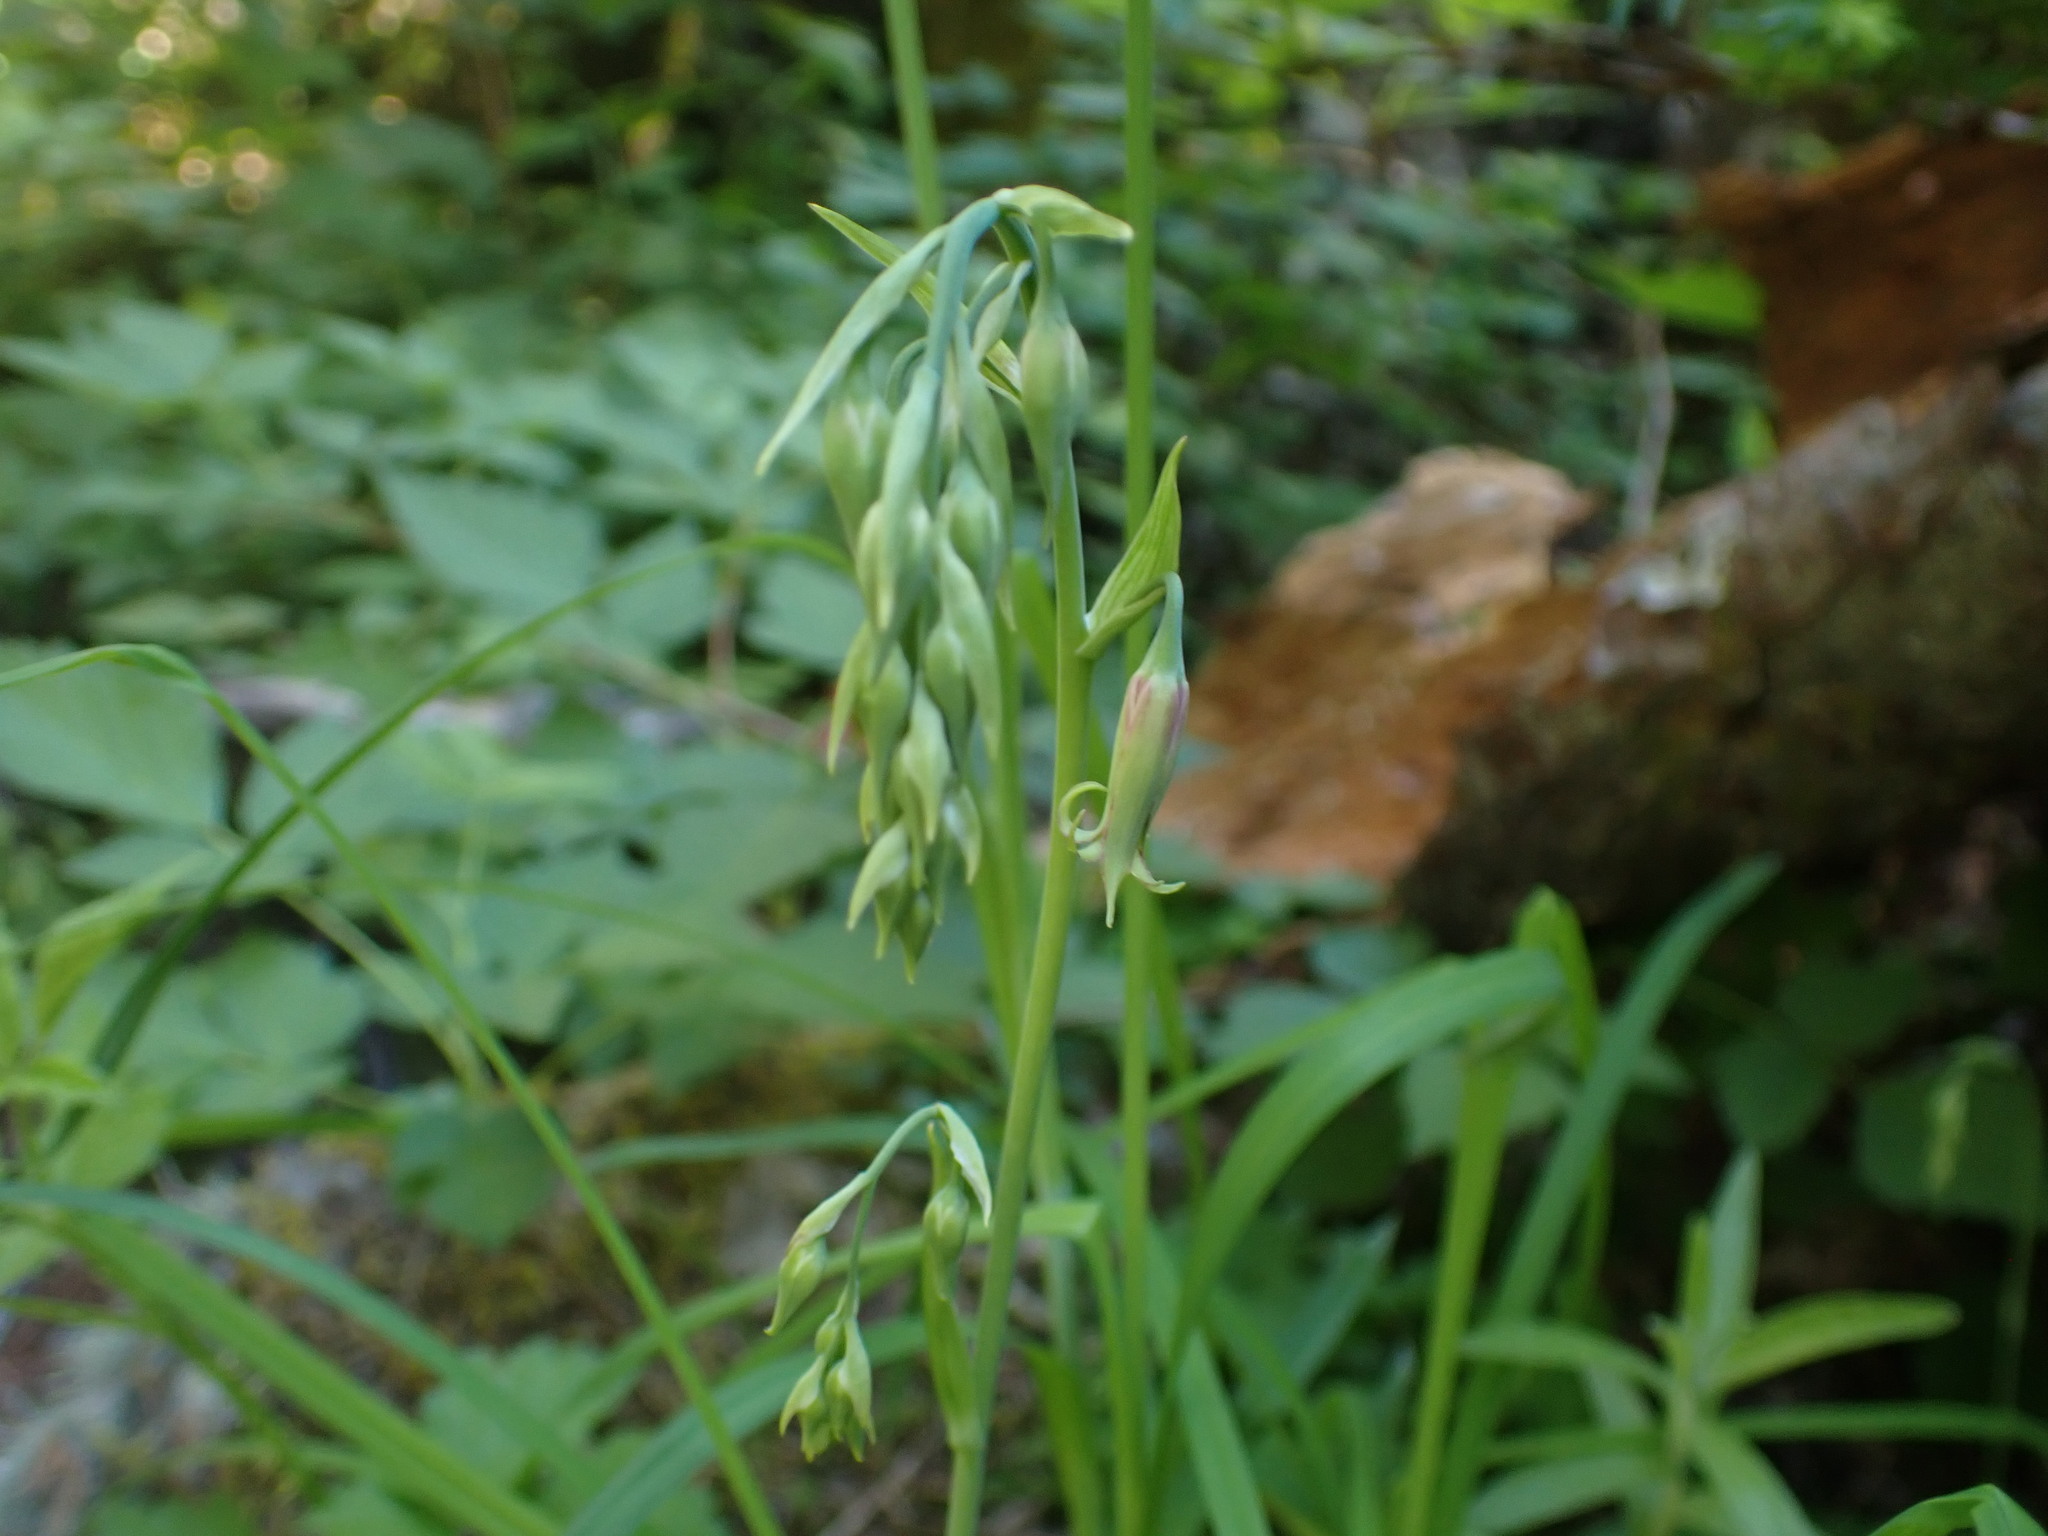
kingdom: Plantae
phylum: Tracheophyta
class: Liliopsida
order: Liliales
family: Melanthiaceae
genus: Anticlea
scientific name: Anticlea occidentalis
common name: Bronze-bells
